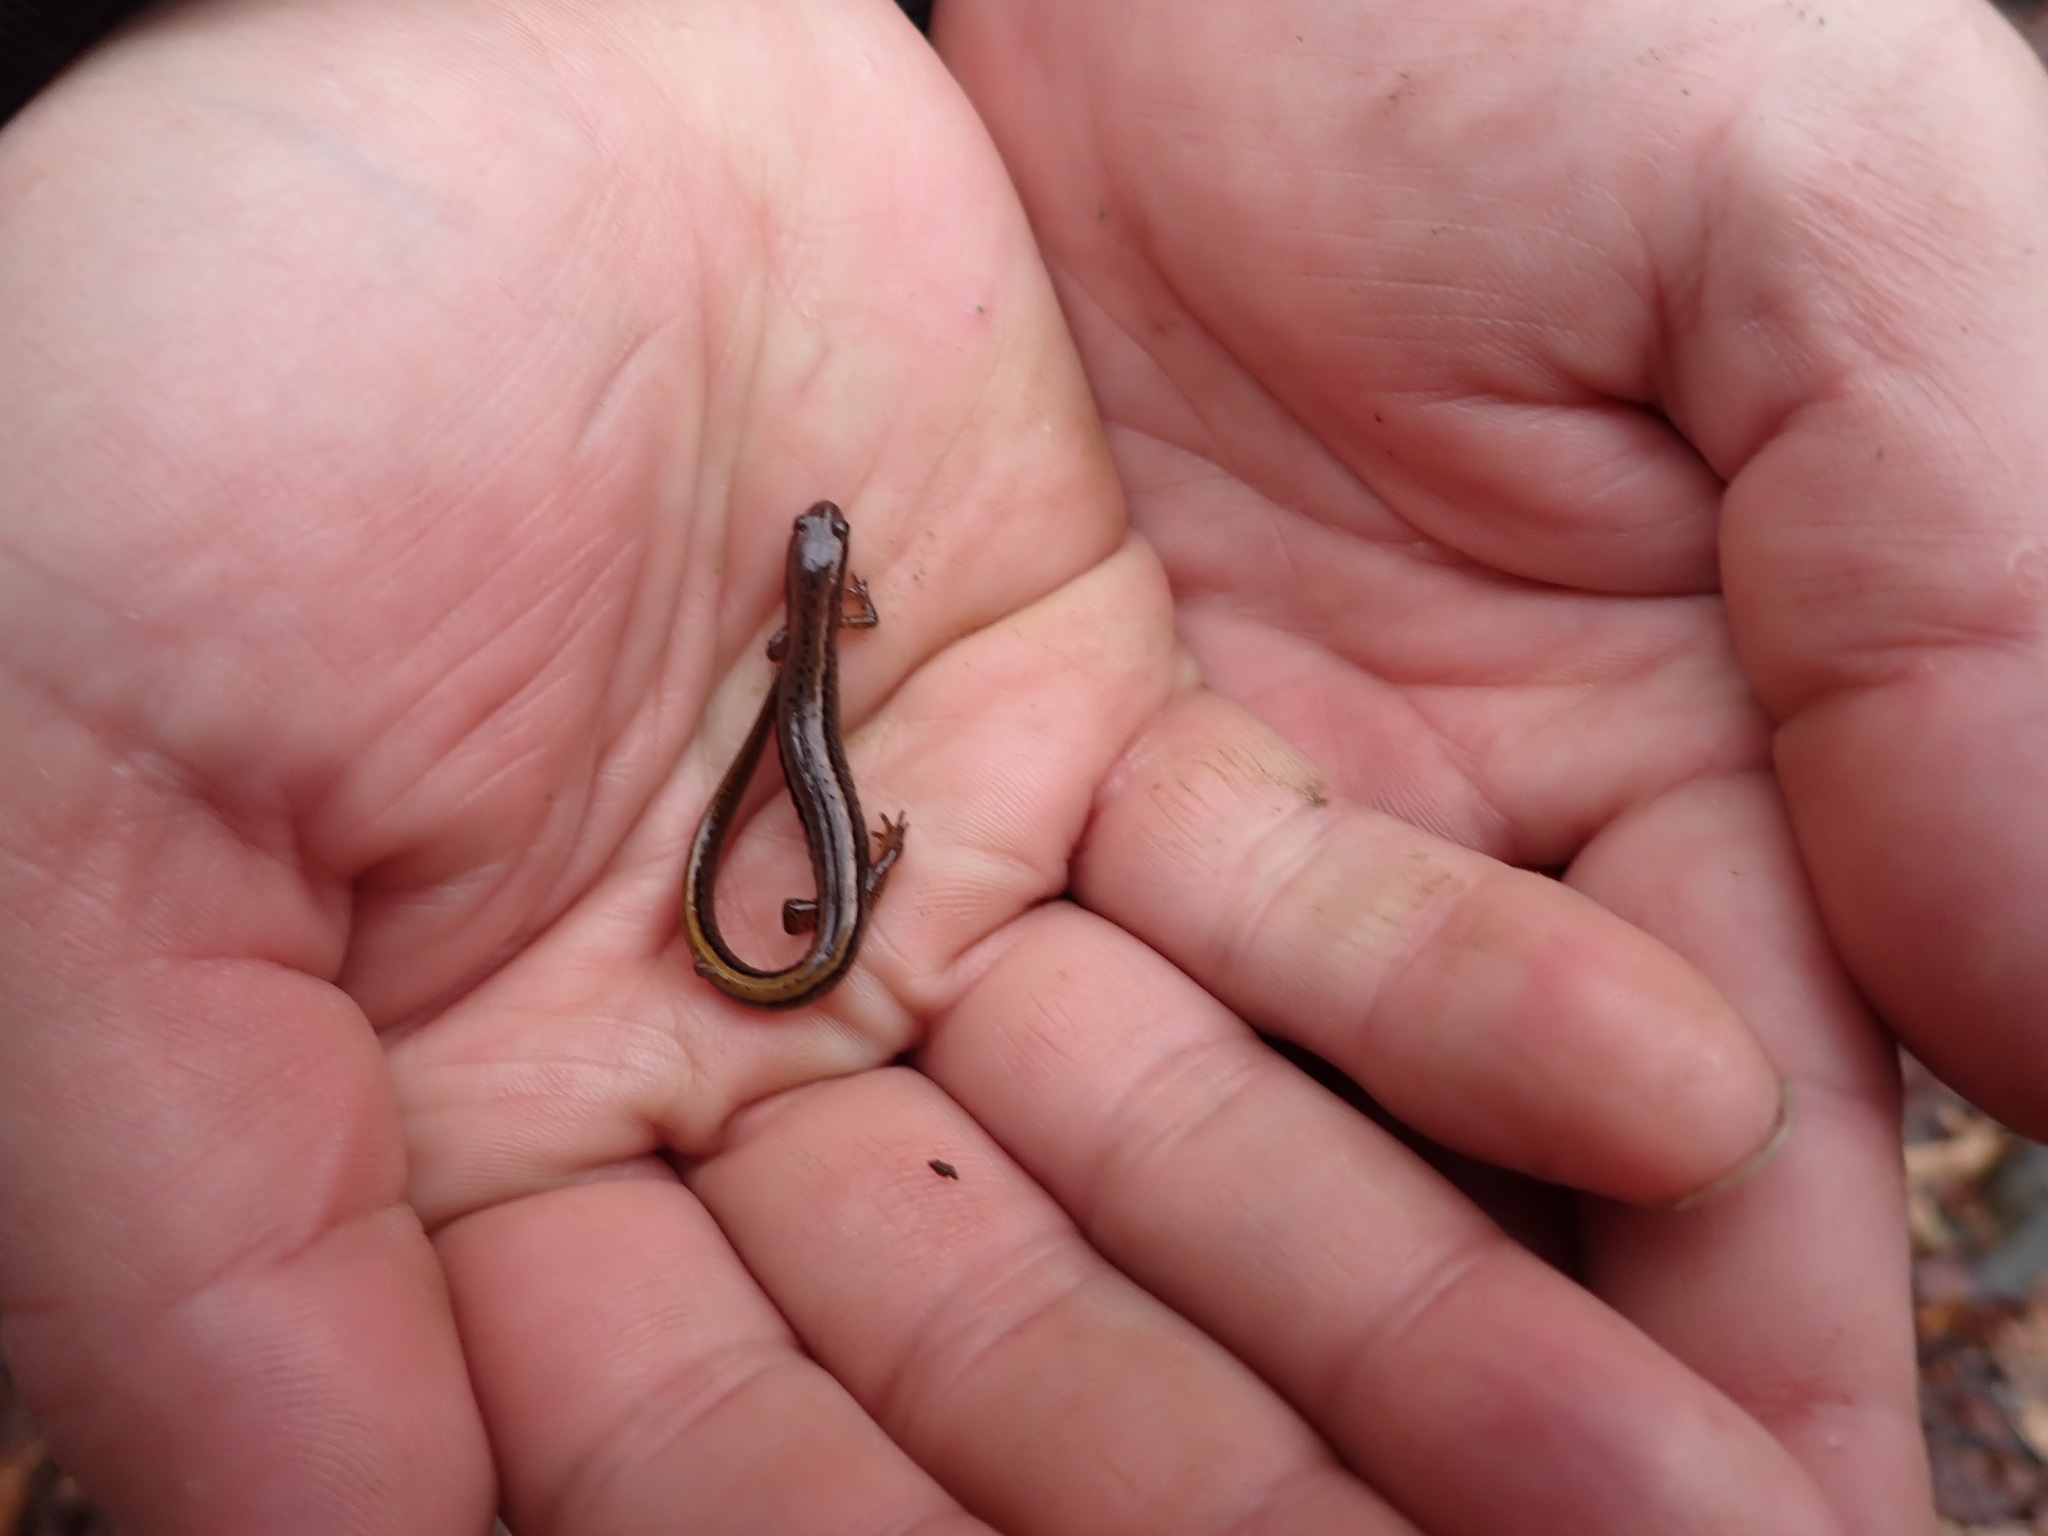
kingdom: Animalia
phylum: Chordata
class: Amphibia
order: Caudata
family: Plethodontidae
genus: Eurycea
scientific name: Eurycea bislineata
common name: Northern two-lined salamander
